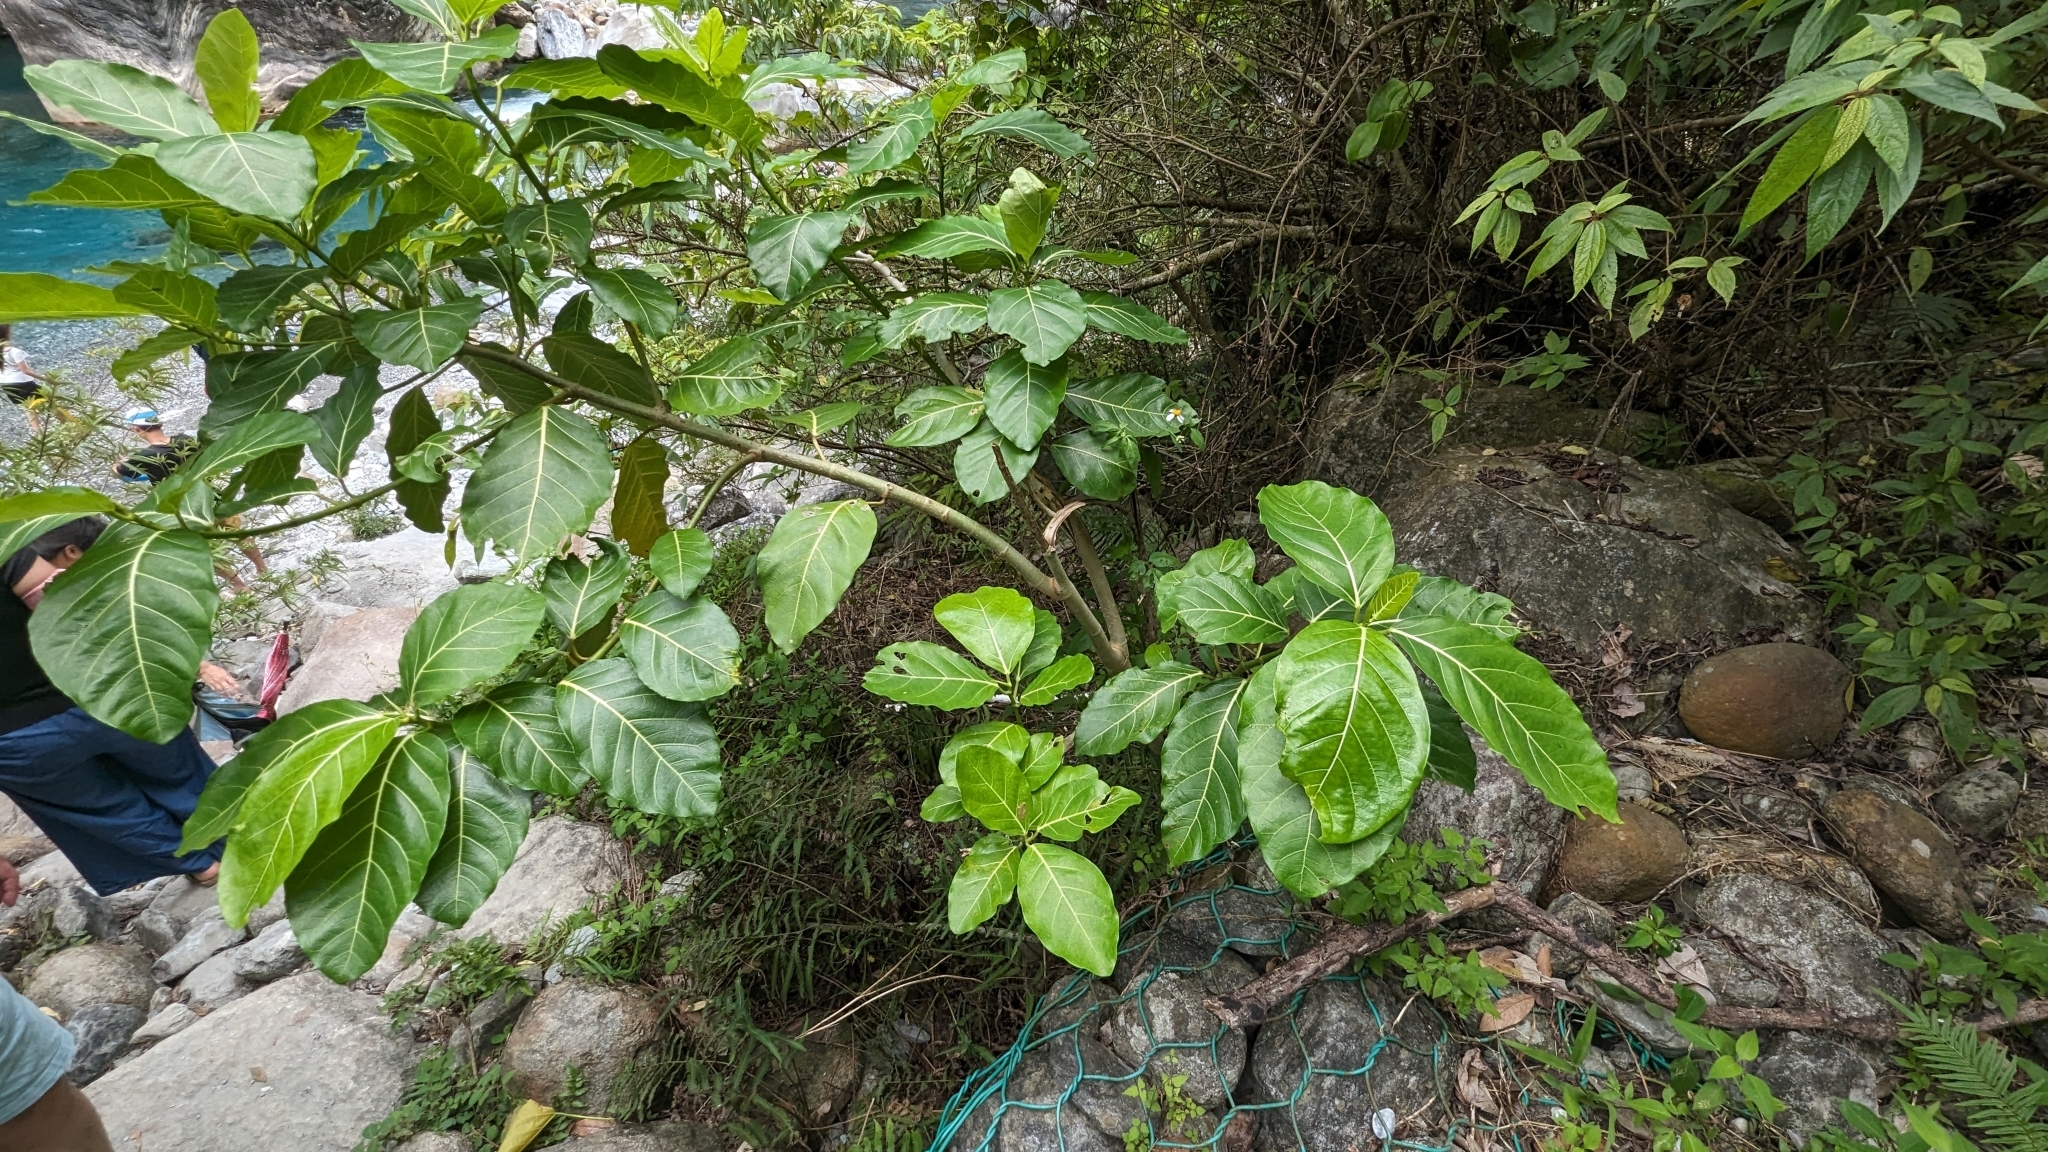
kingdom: Plantae
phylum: Tracheophyta
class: Magnoliopsida
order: Rosales
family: Moraceae
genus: Ficus
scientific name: Ficus septica
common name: Septic fig
